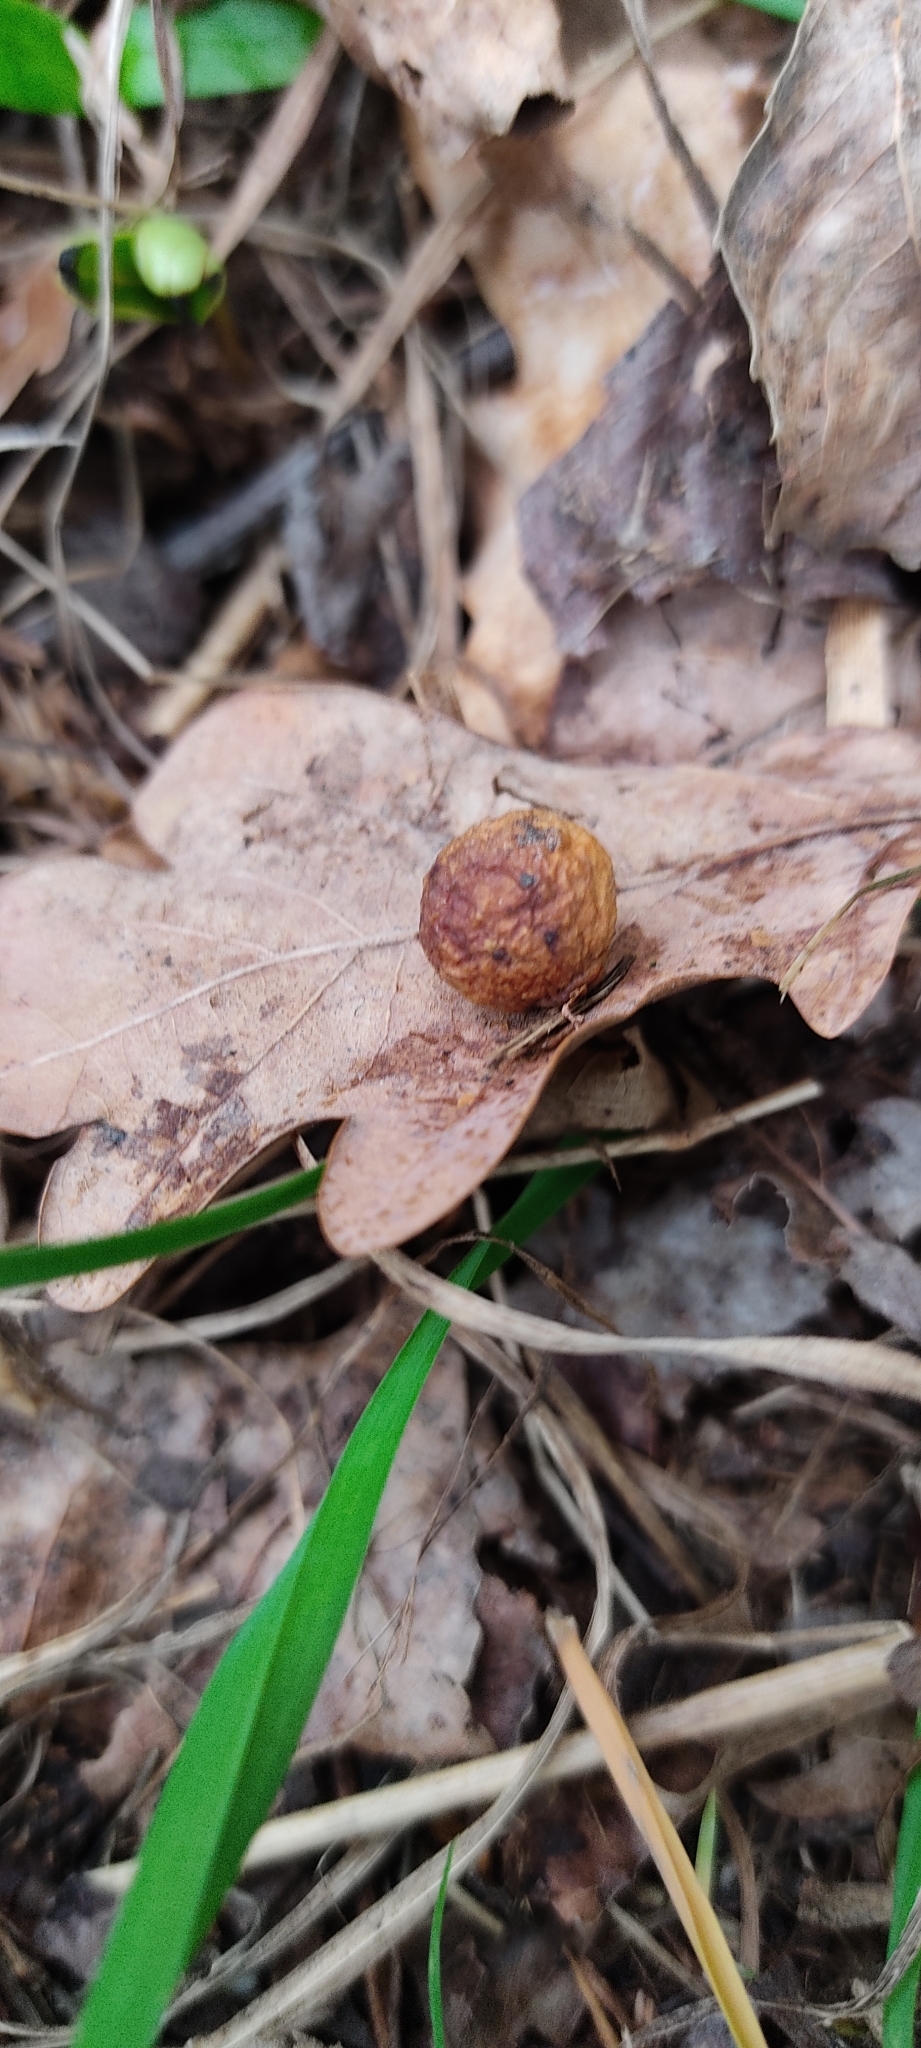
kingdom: Animalia
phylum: Arthropoda
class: Insecta
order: Hymenoptera
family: Cynipidae
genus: Cynips
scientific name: Cynips quercusfolii
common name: Cherry gall
